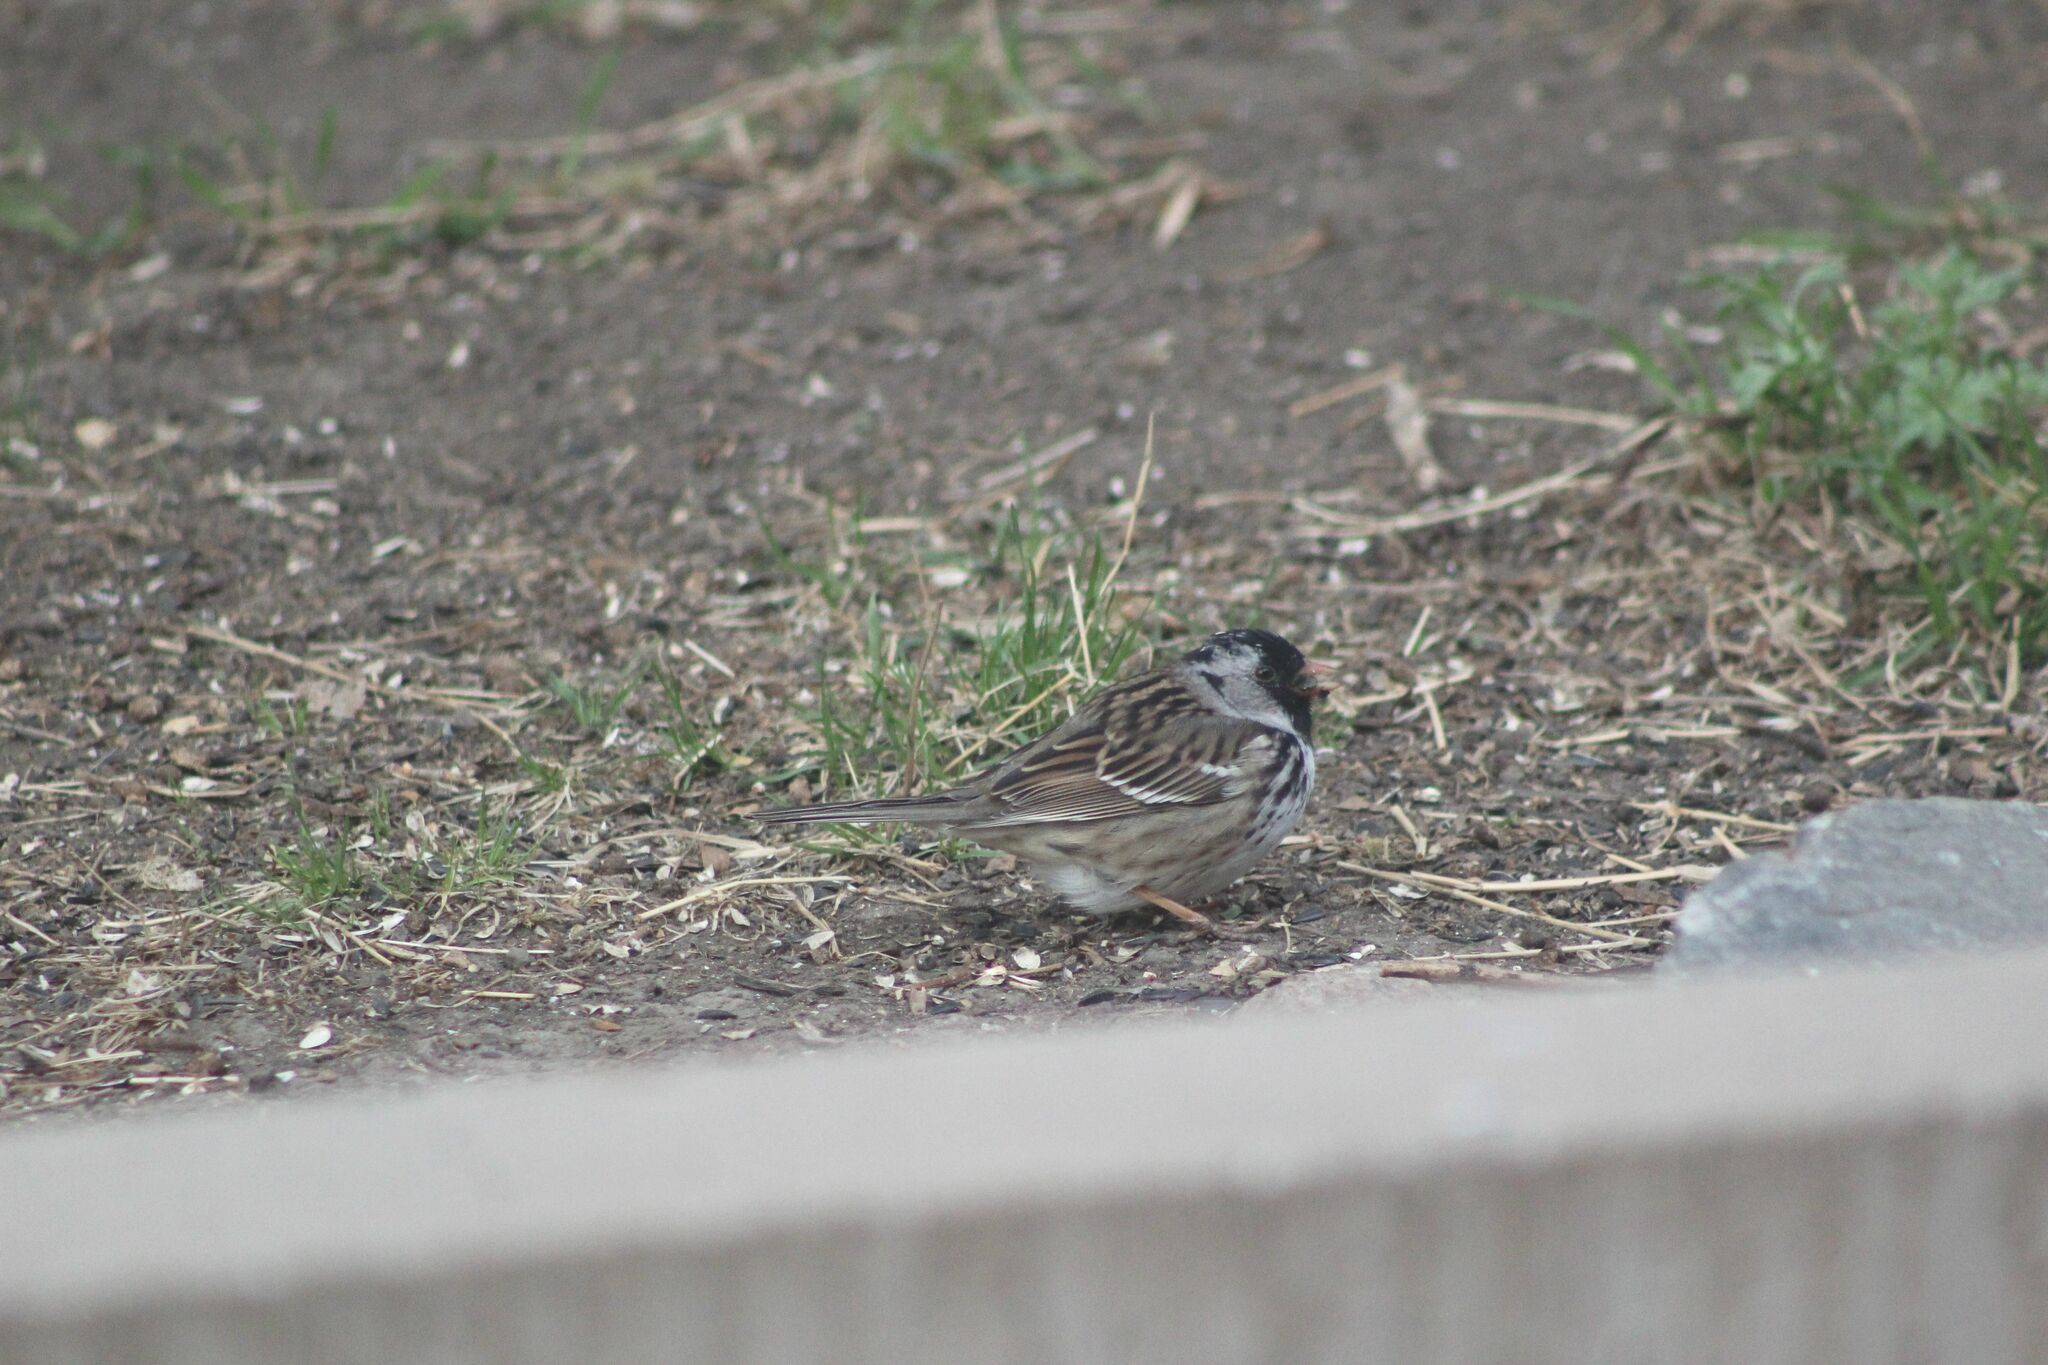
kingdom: Animalia
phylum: Chordata
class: Aves
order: Passeriformes
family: Passerellidae
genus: Zonotrichia
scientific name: Zonotrichia querula
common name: Harris's sparrow
